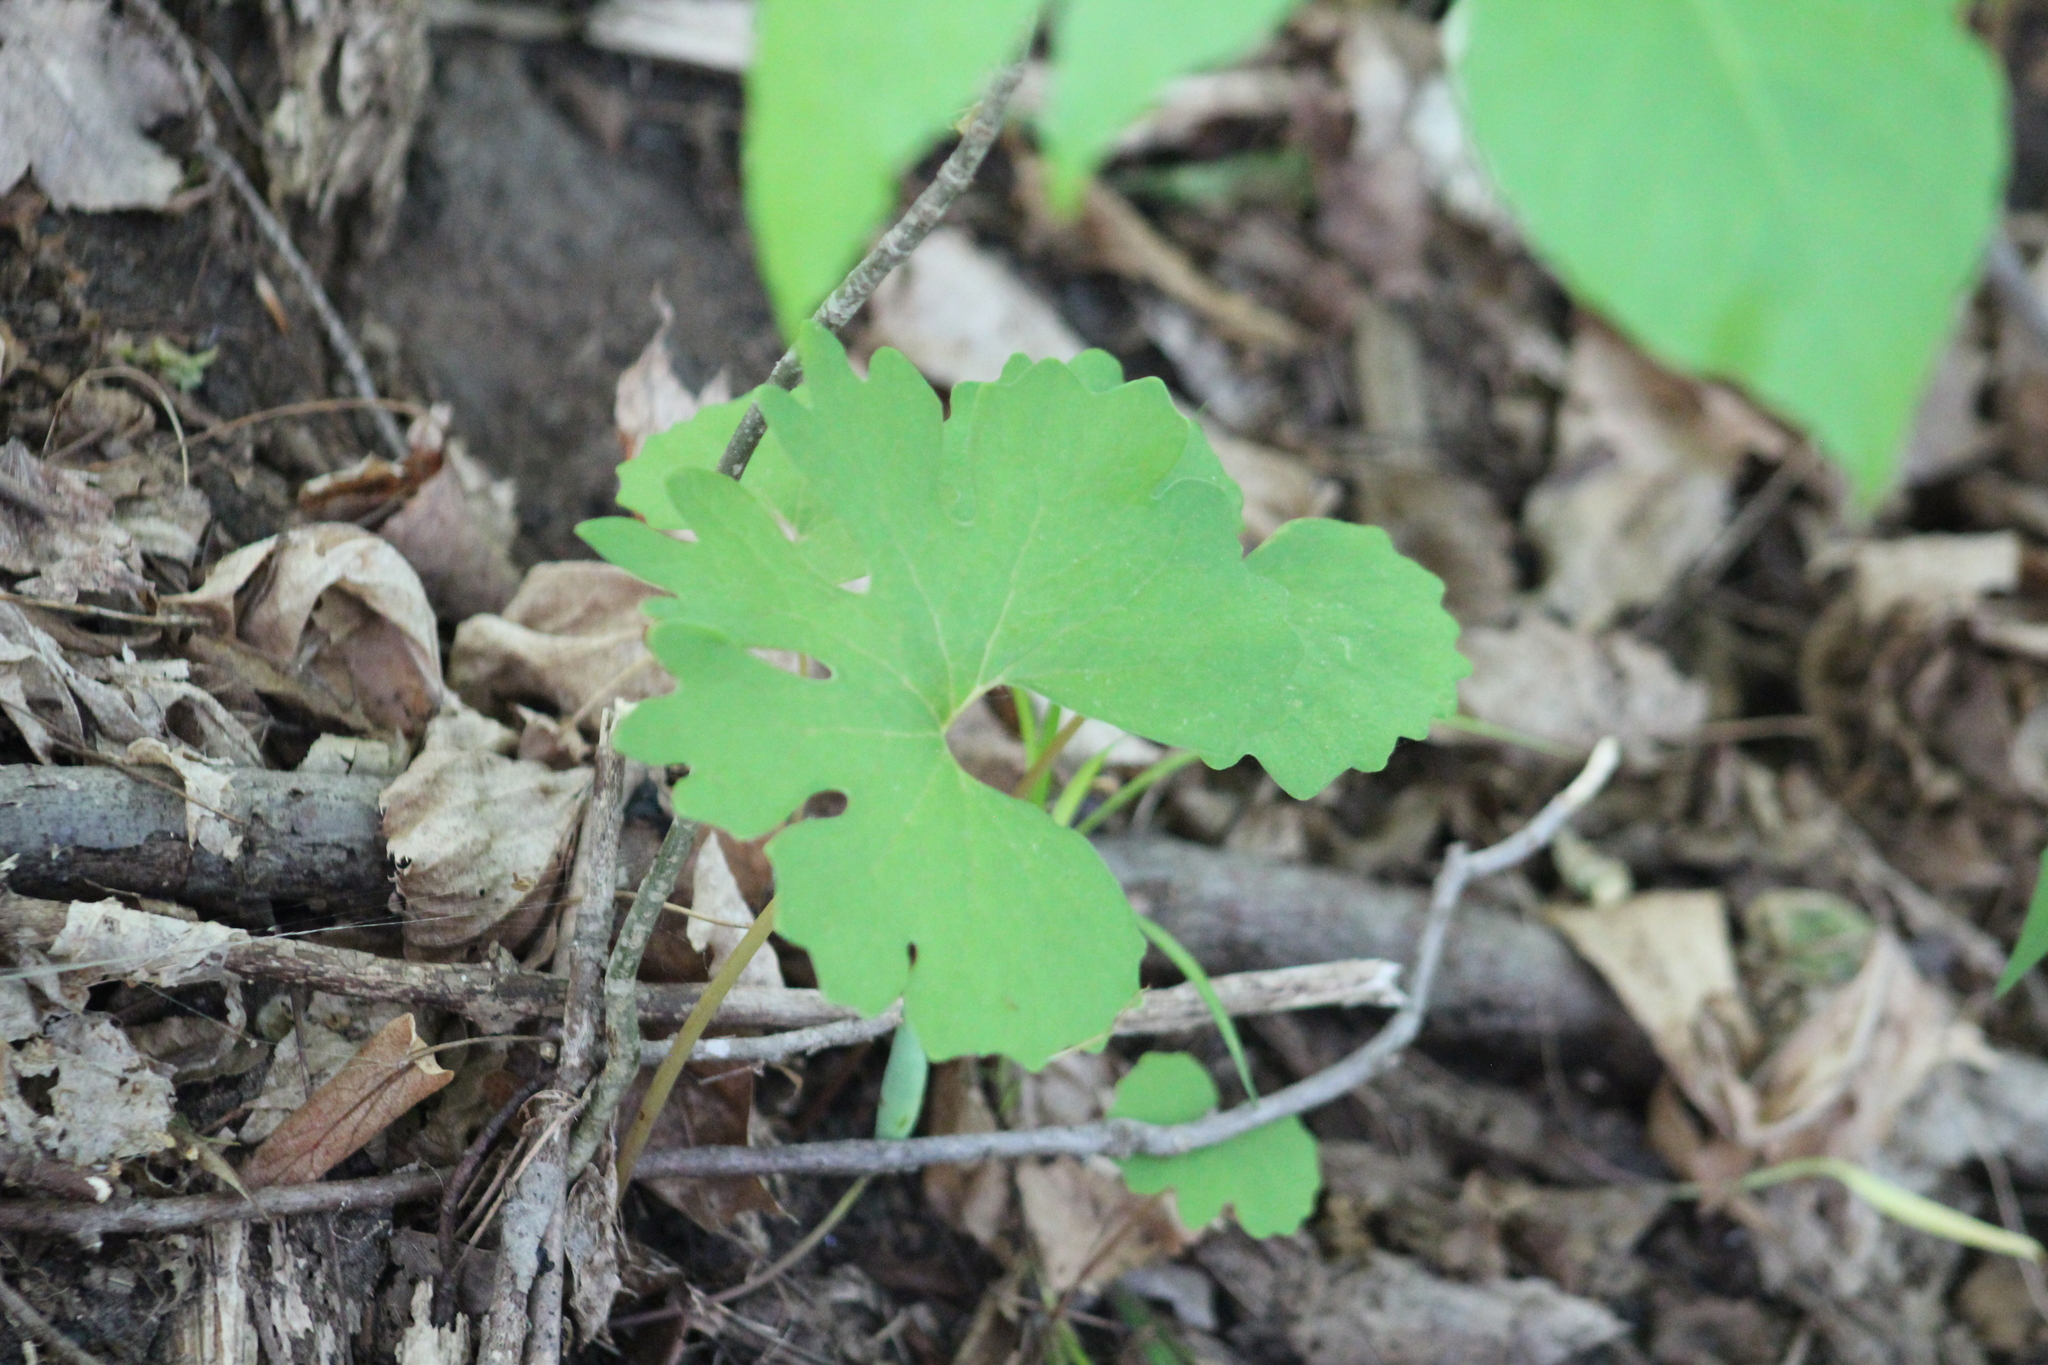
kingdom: Plantae
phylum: Tracheophyta
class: Magnoliopsida
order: Ranunculales
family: Papaveraceae
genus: Sanguinaria
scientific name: Sanguinaria canadensis
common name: Bloodroot
